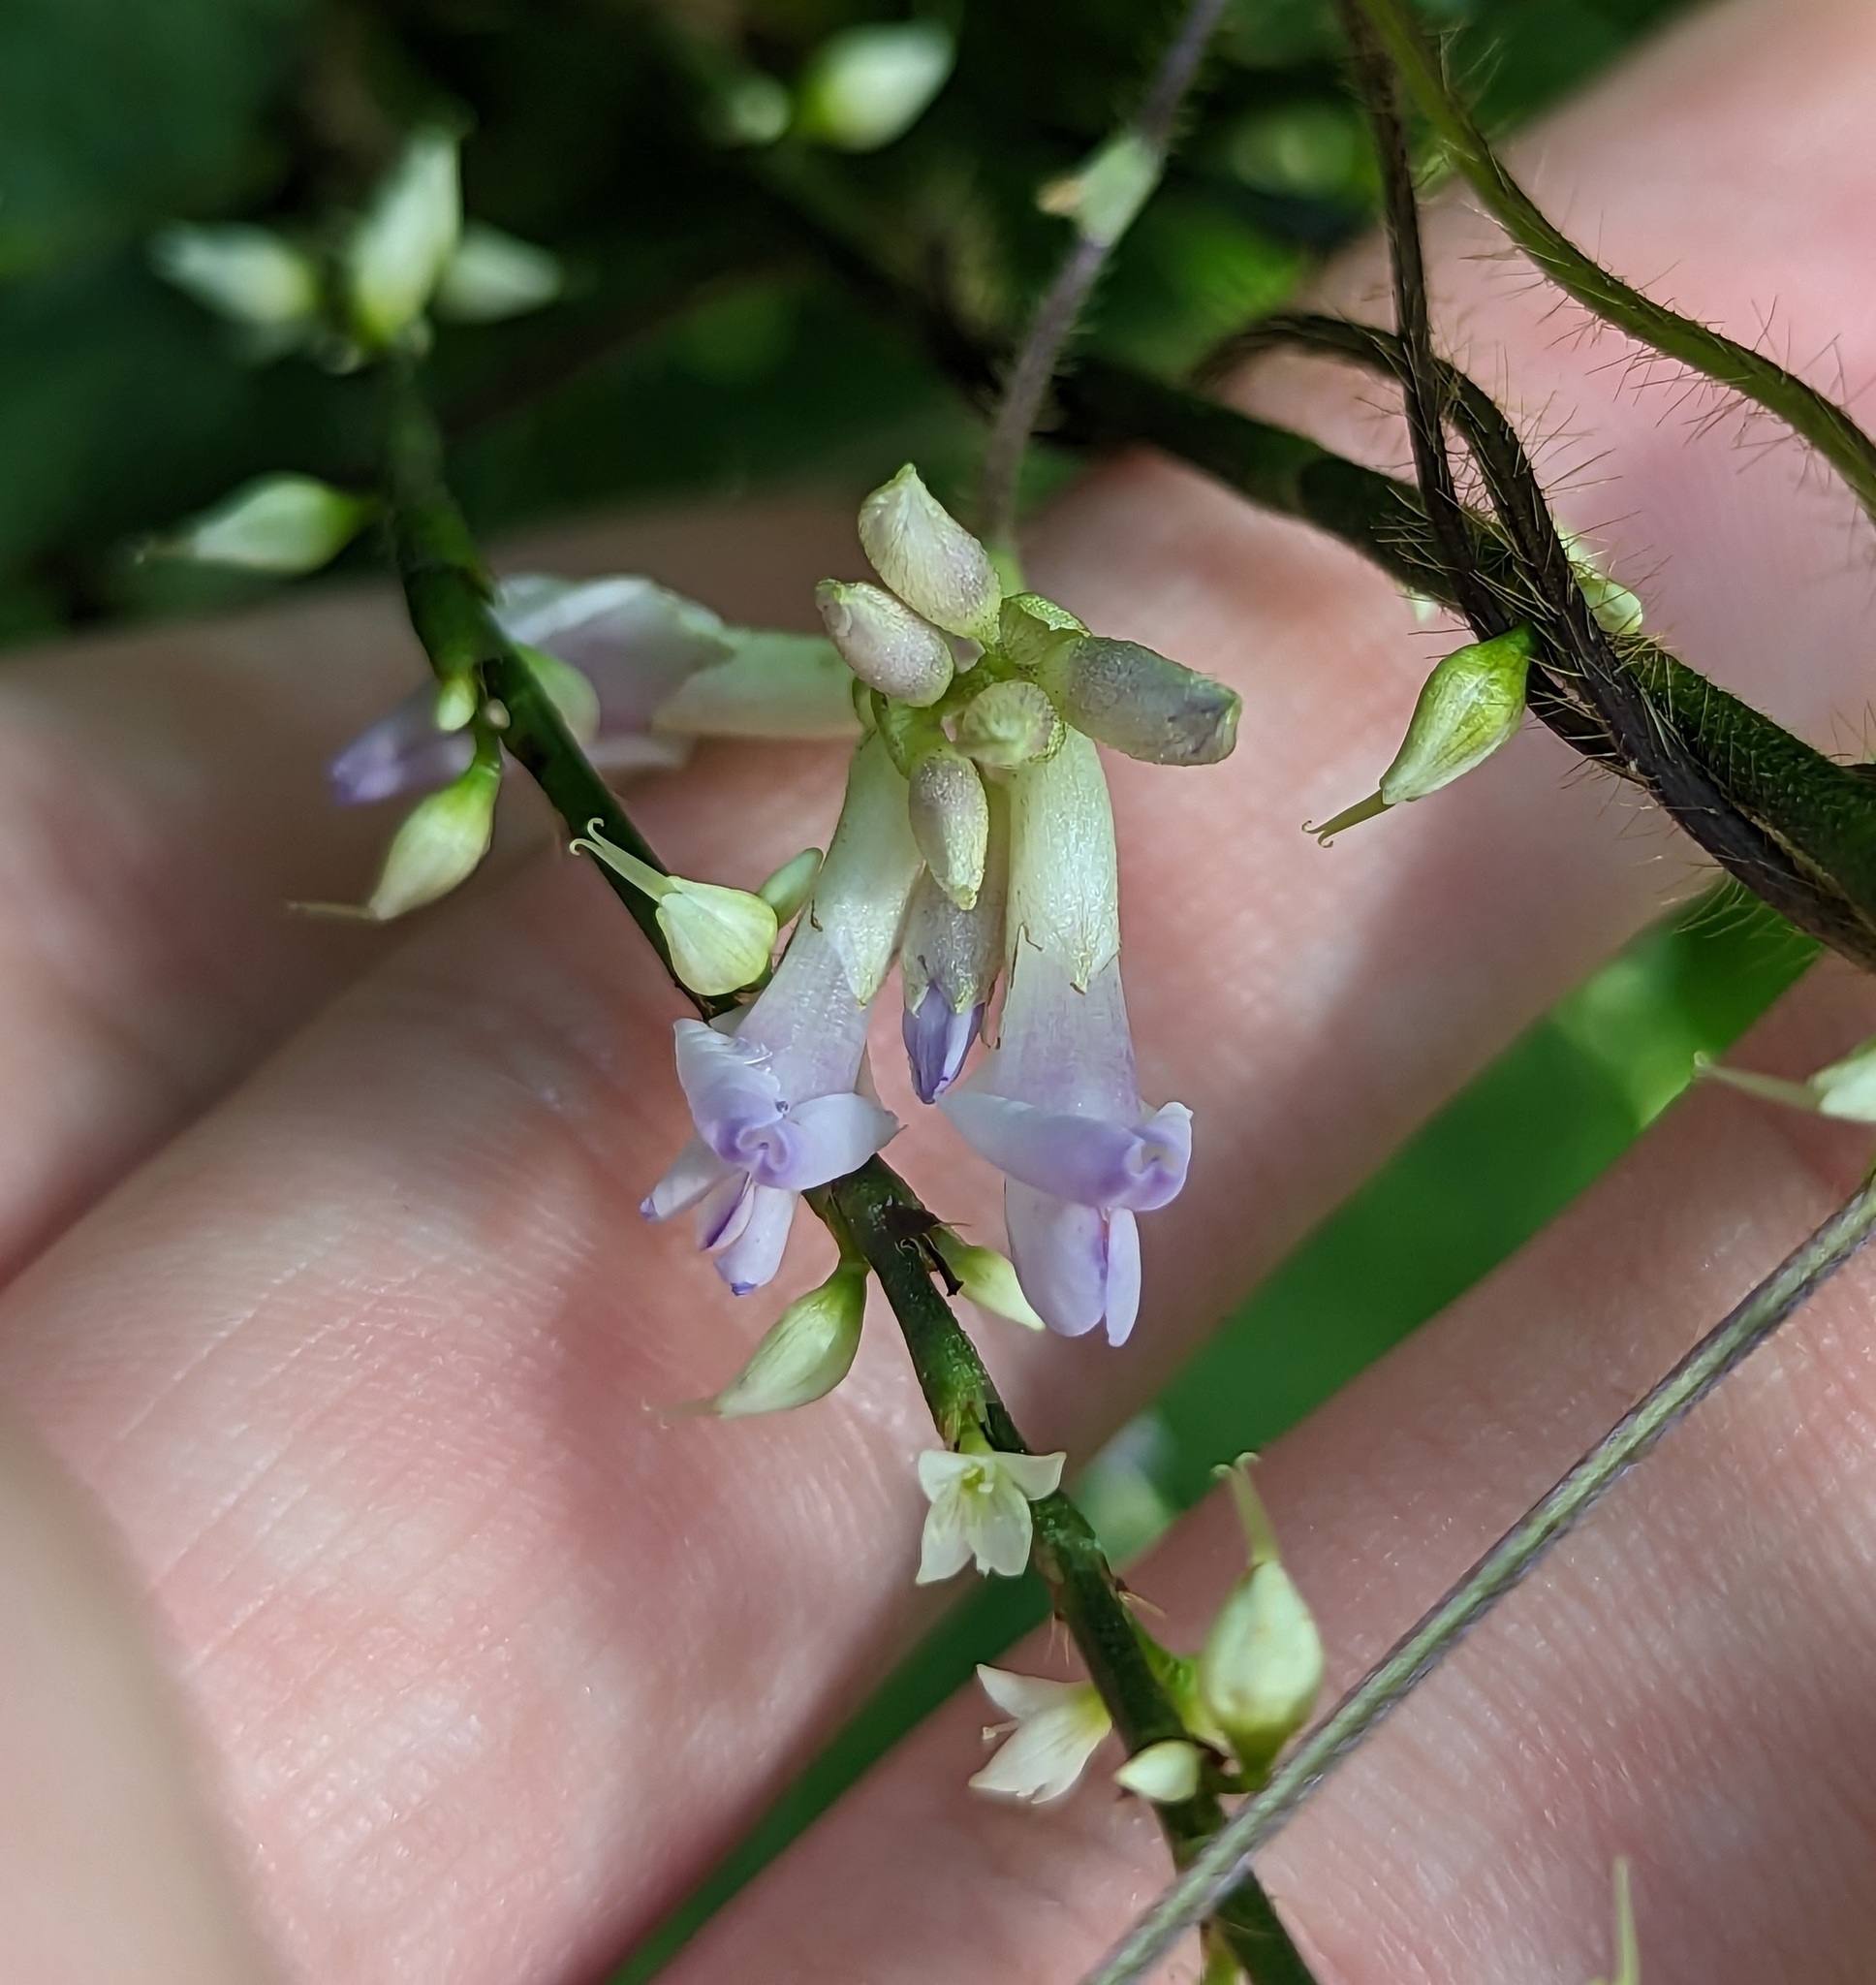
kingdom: Plantae
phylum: Tracheophyta
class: Magnoliopsida
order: Fabales
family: Fabaceae
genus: Amphicarpaea
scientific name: Amphicarpaea bracteata
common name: American hog peanut
